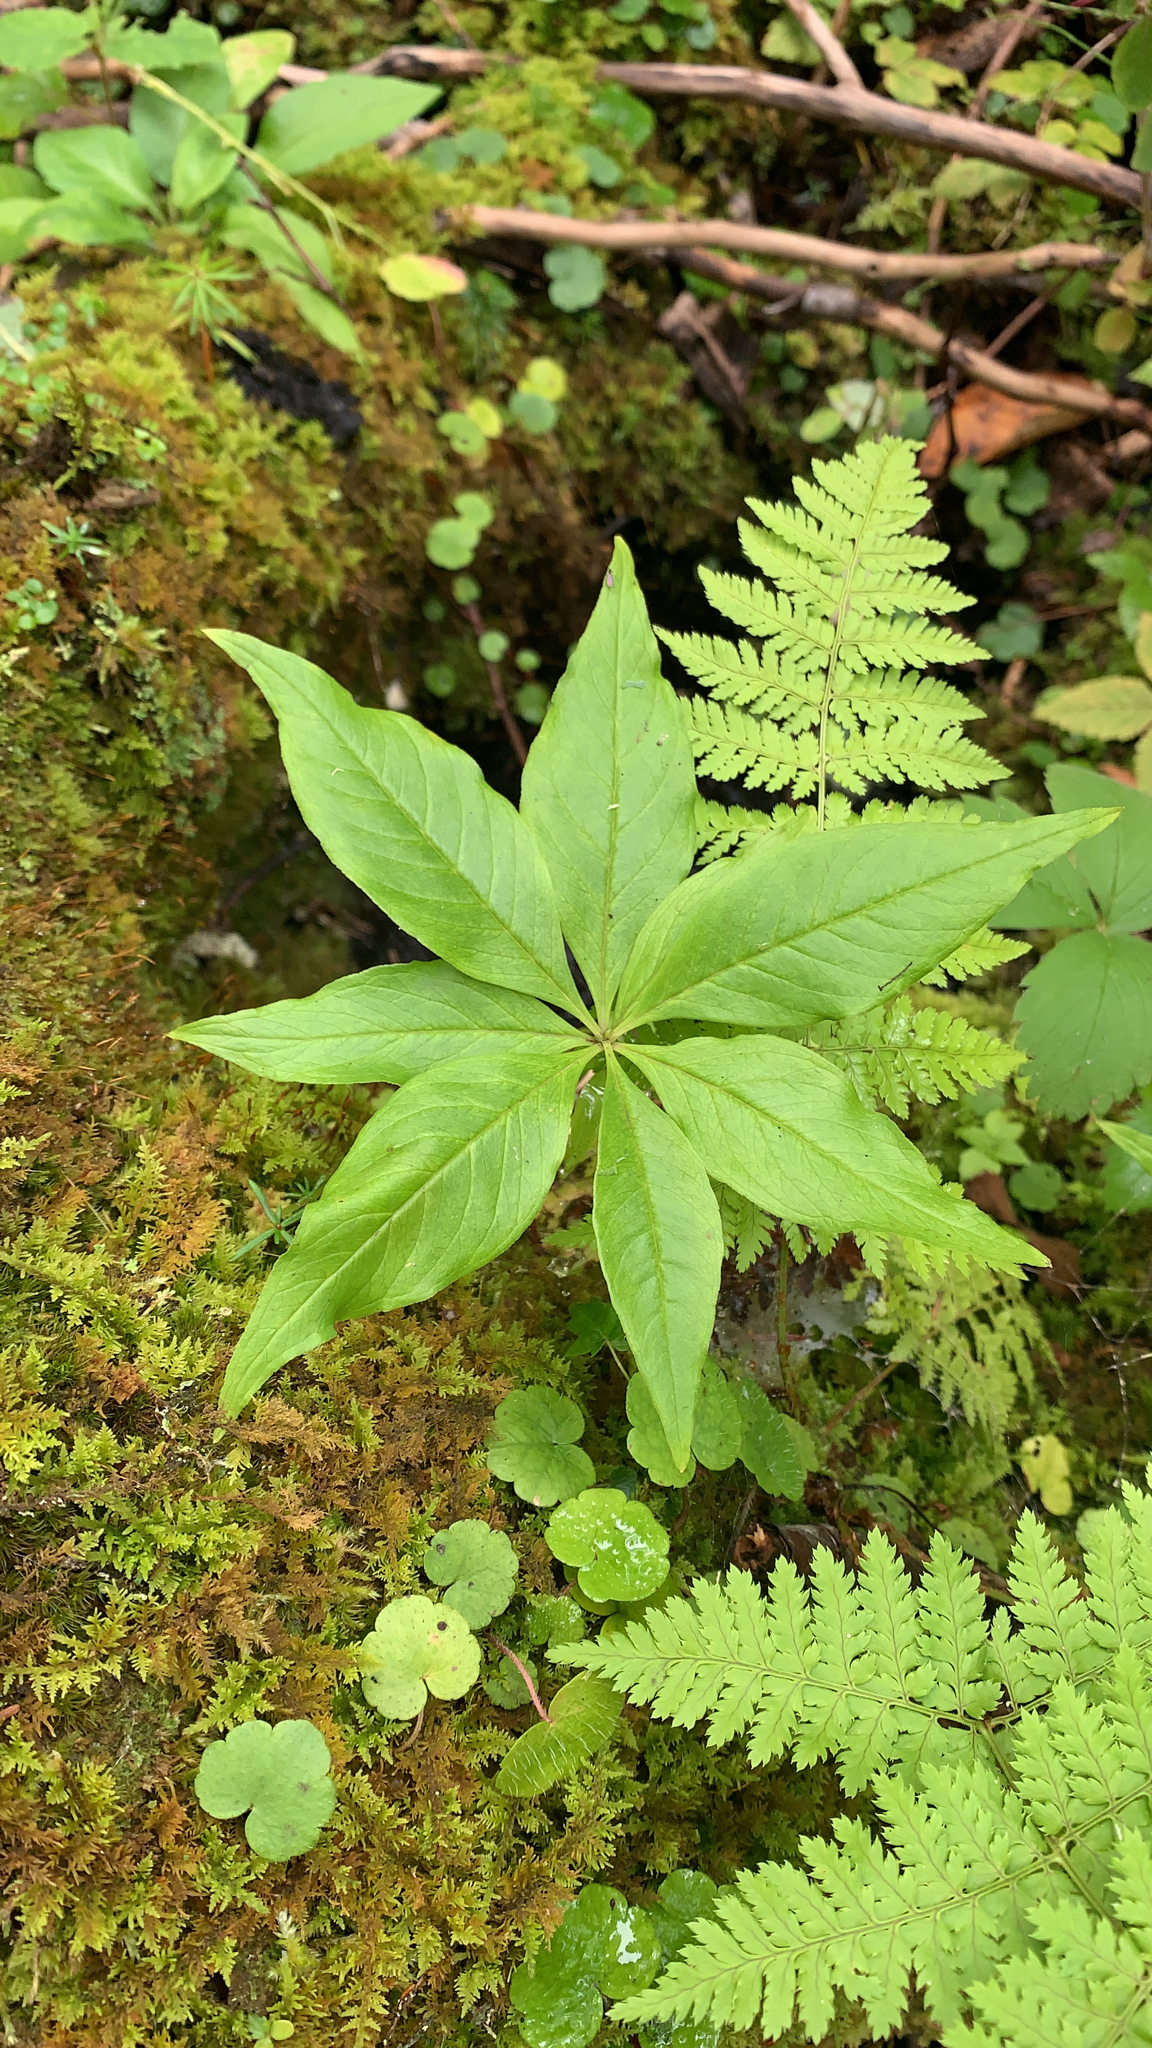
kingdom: Plantae
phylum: Tracheophyta
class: Magnoliopsida
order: Ericales
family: Primulaceae
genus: Lysimachia
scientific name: Lysimachia borealis
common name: American starflower
